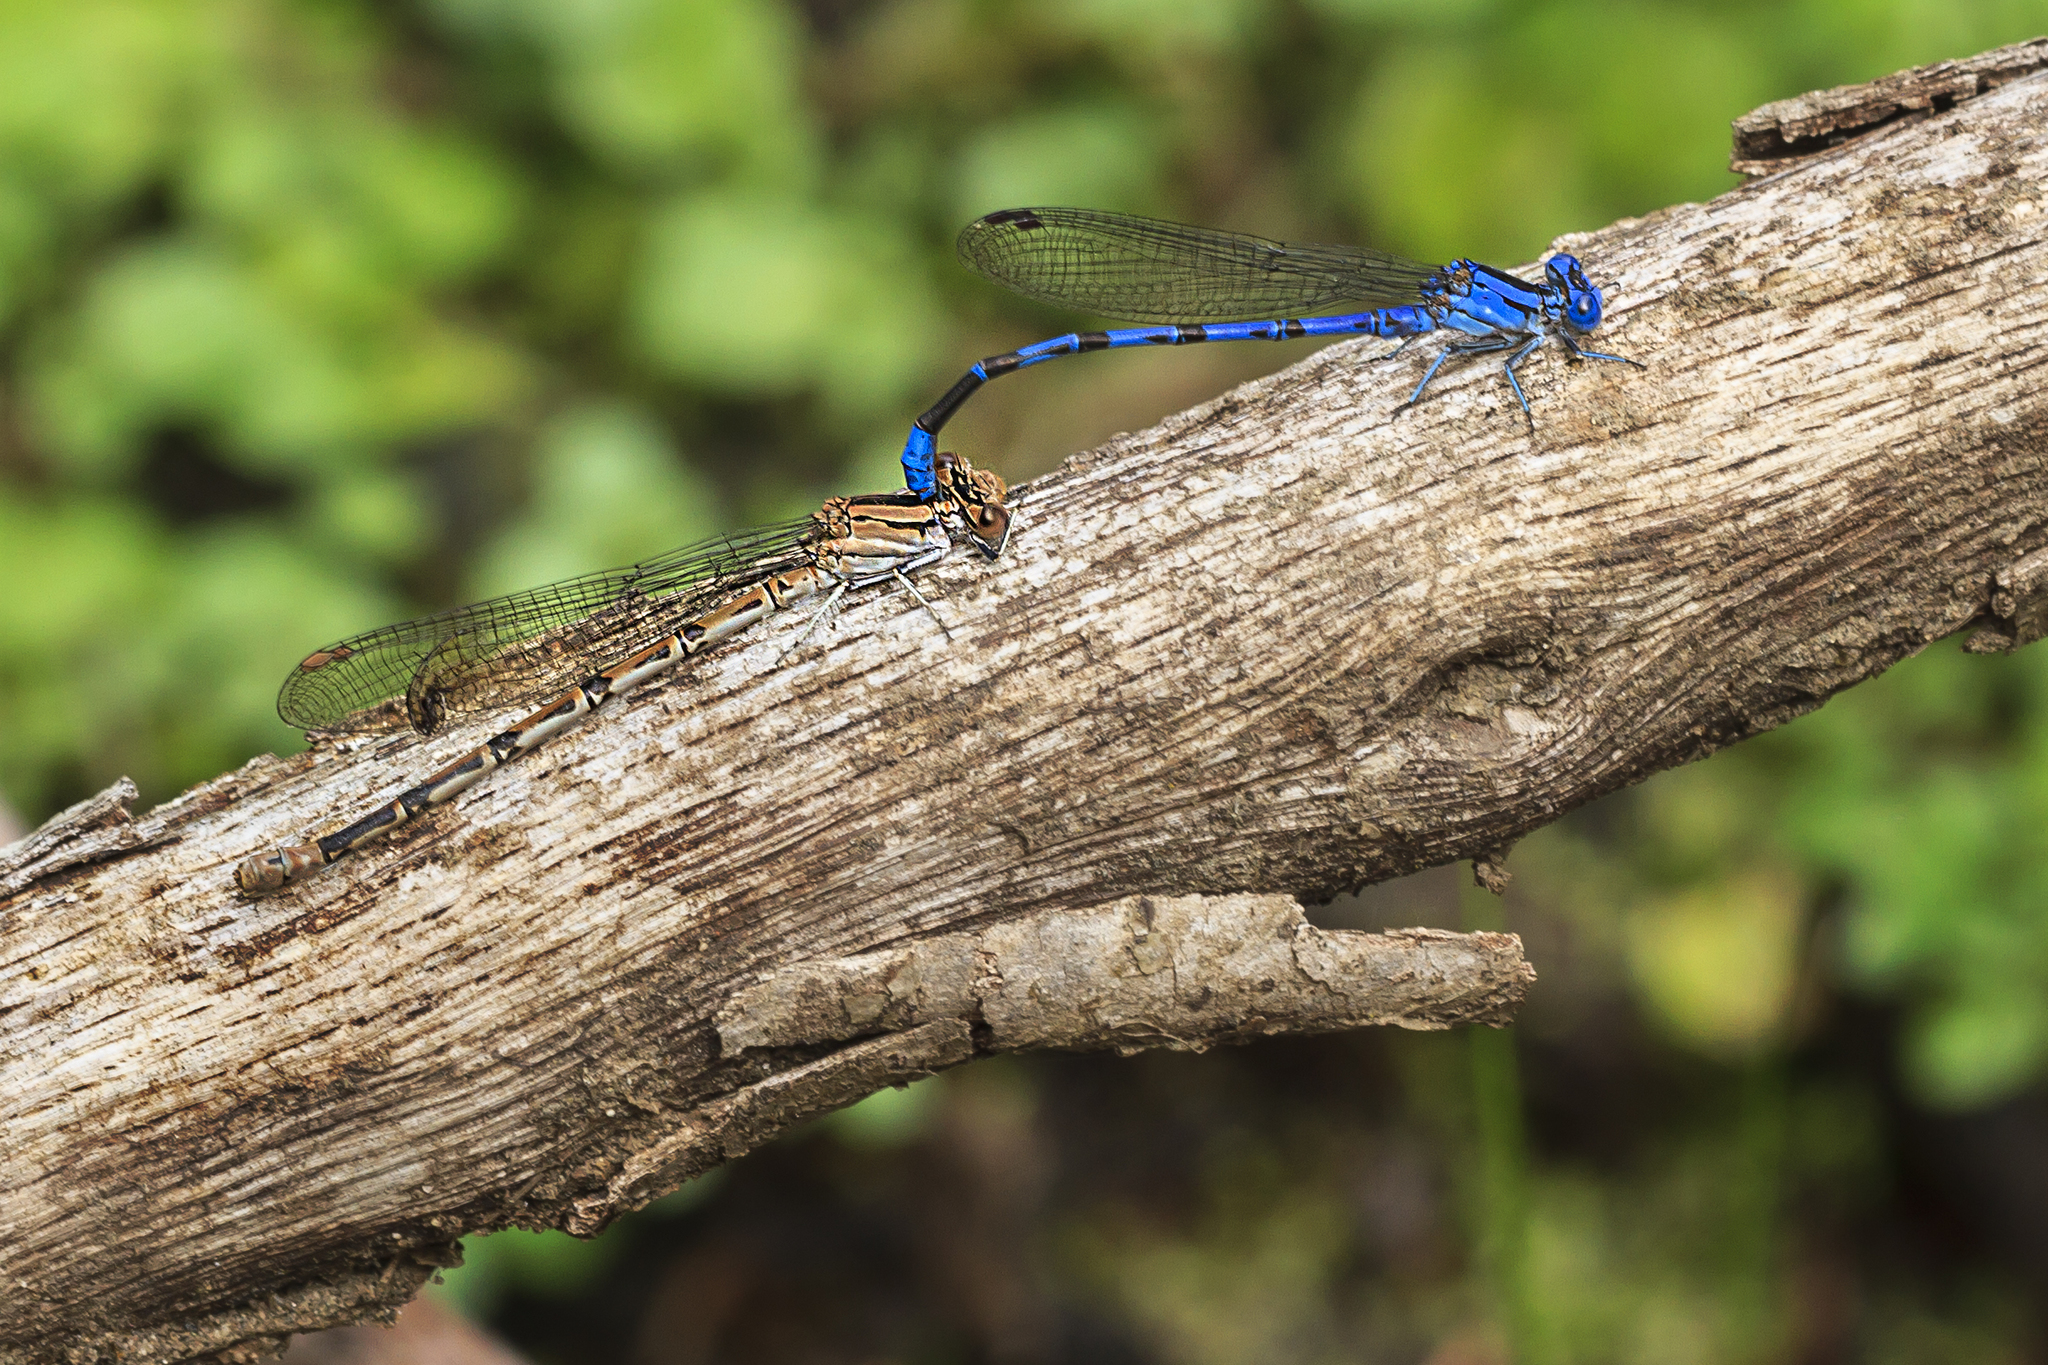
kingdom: Animalia
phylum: Arthropoda
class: Insecta
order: Odonata
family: Coenagrionidae
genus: Argia
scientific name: Argia vivida
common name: Vivid dancer
